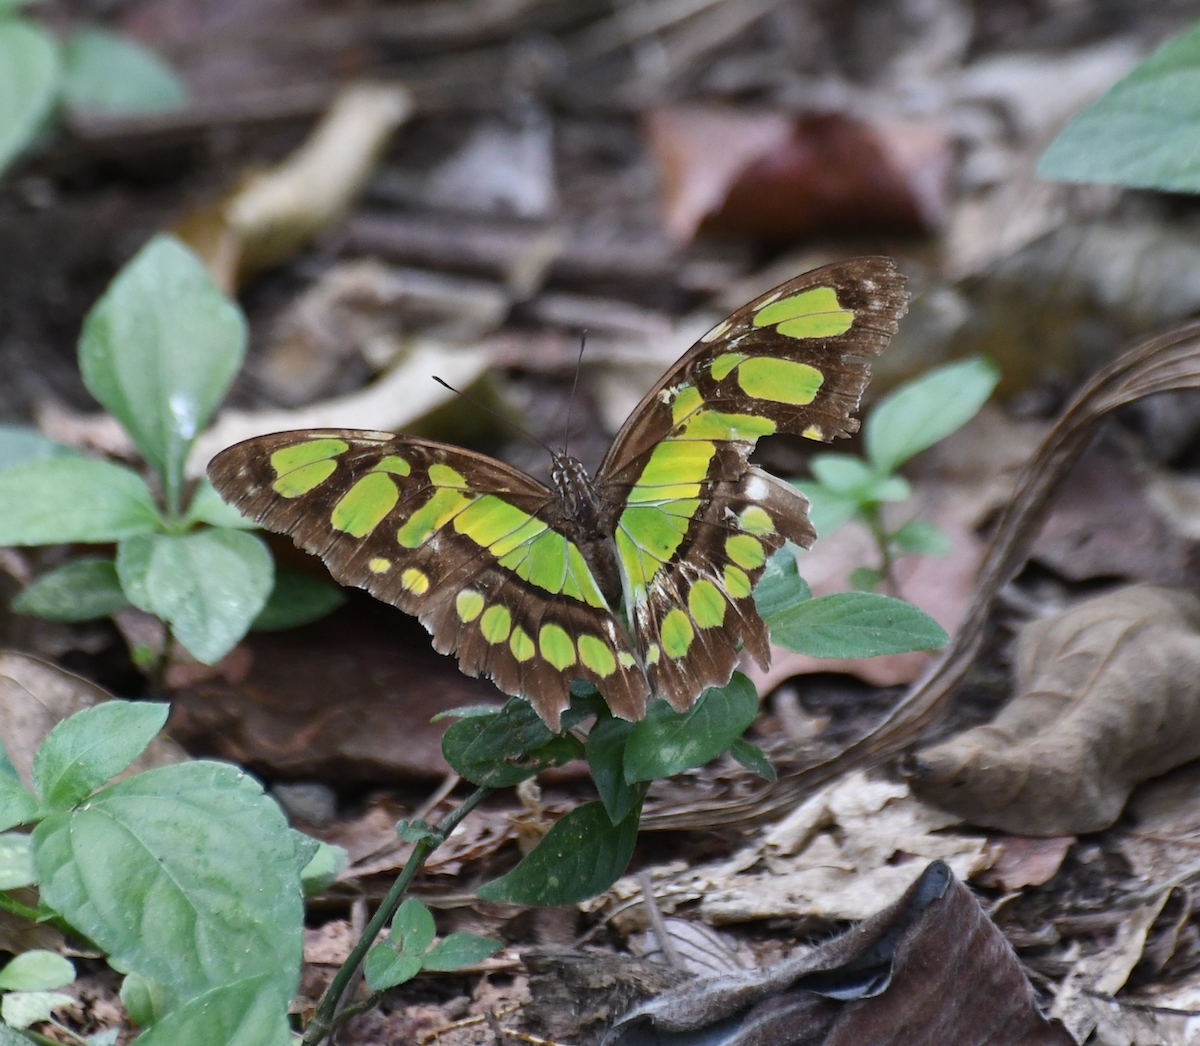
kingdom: Animalia
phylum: Arthropoda
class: Insecta
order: Lepidoptera
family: Nymphalidae
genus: Siproeta
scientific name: Siproeta stelenes
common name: Malachite
